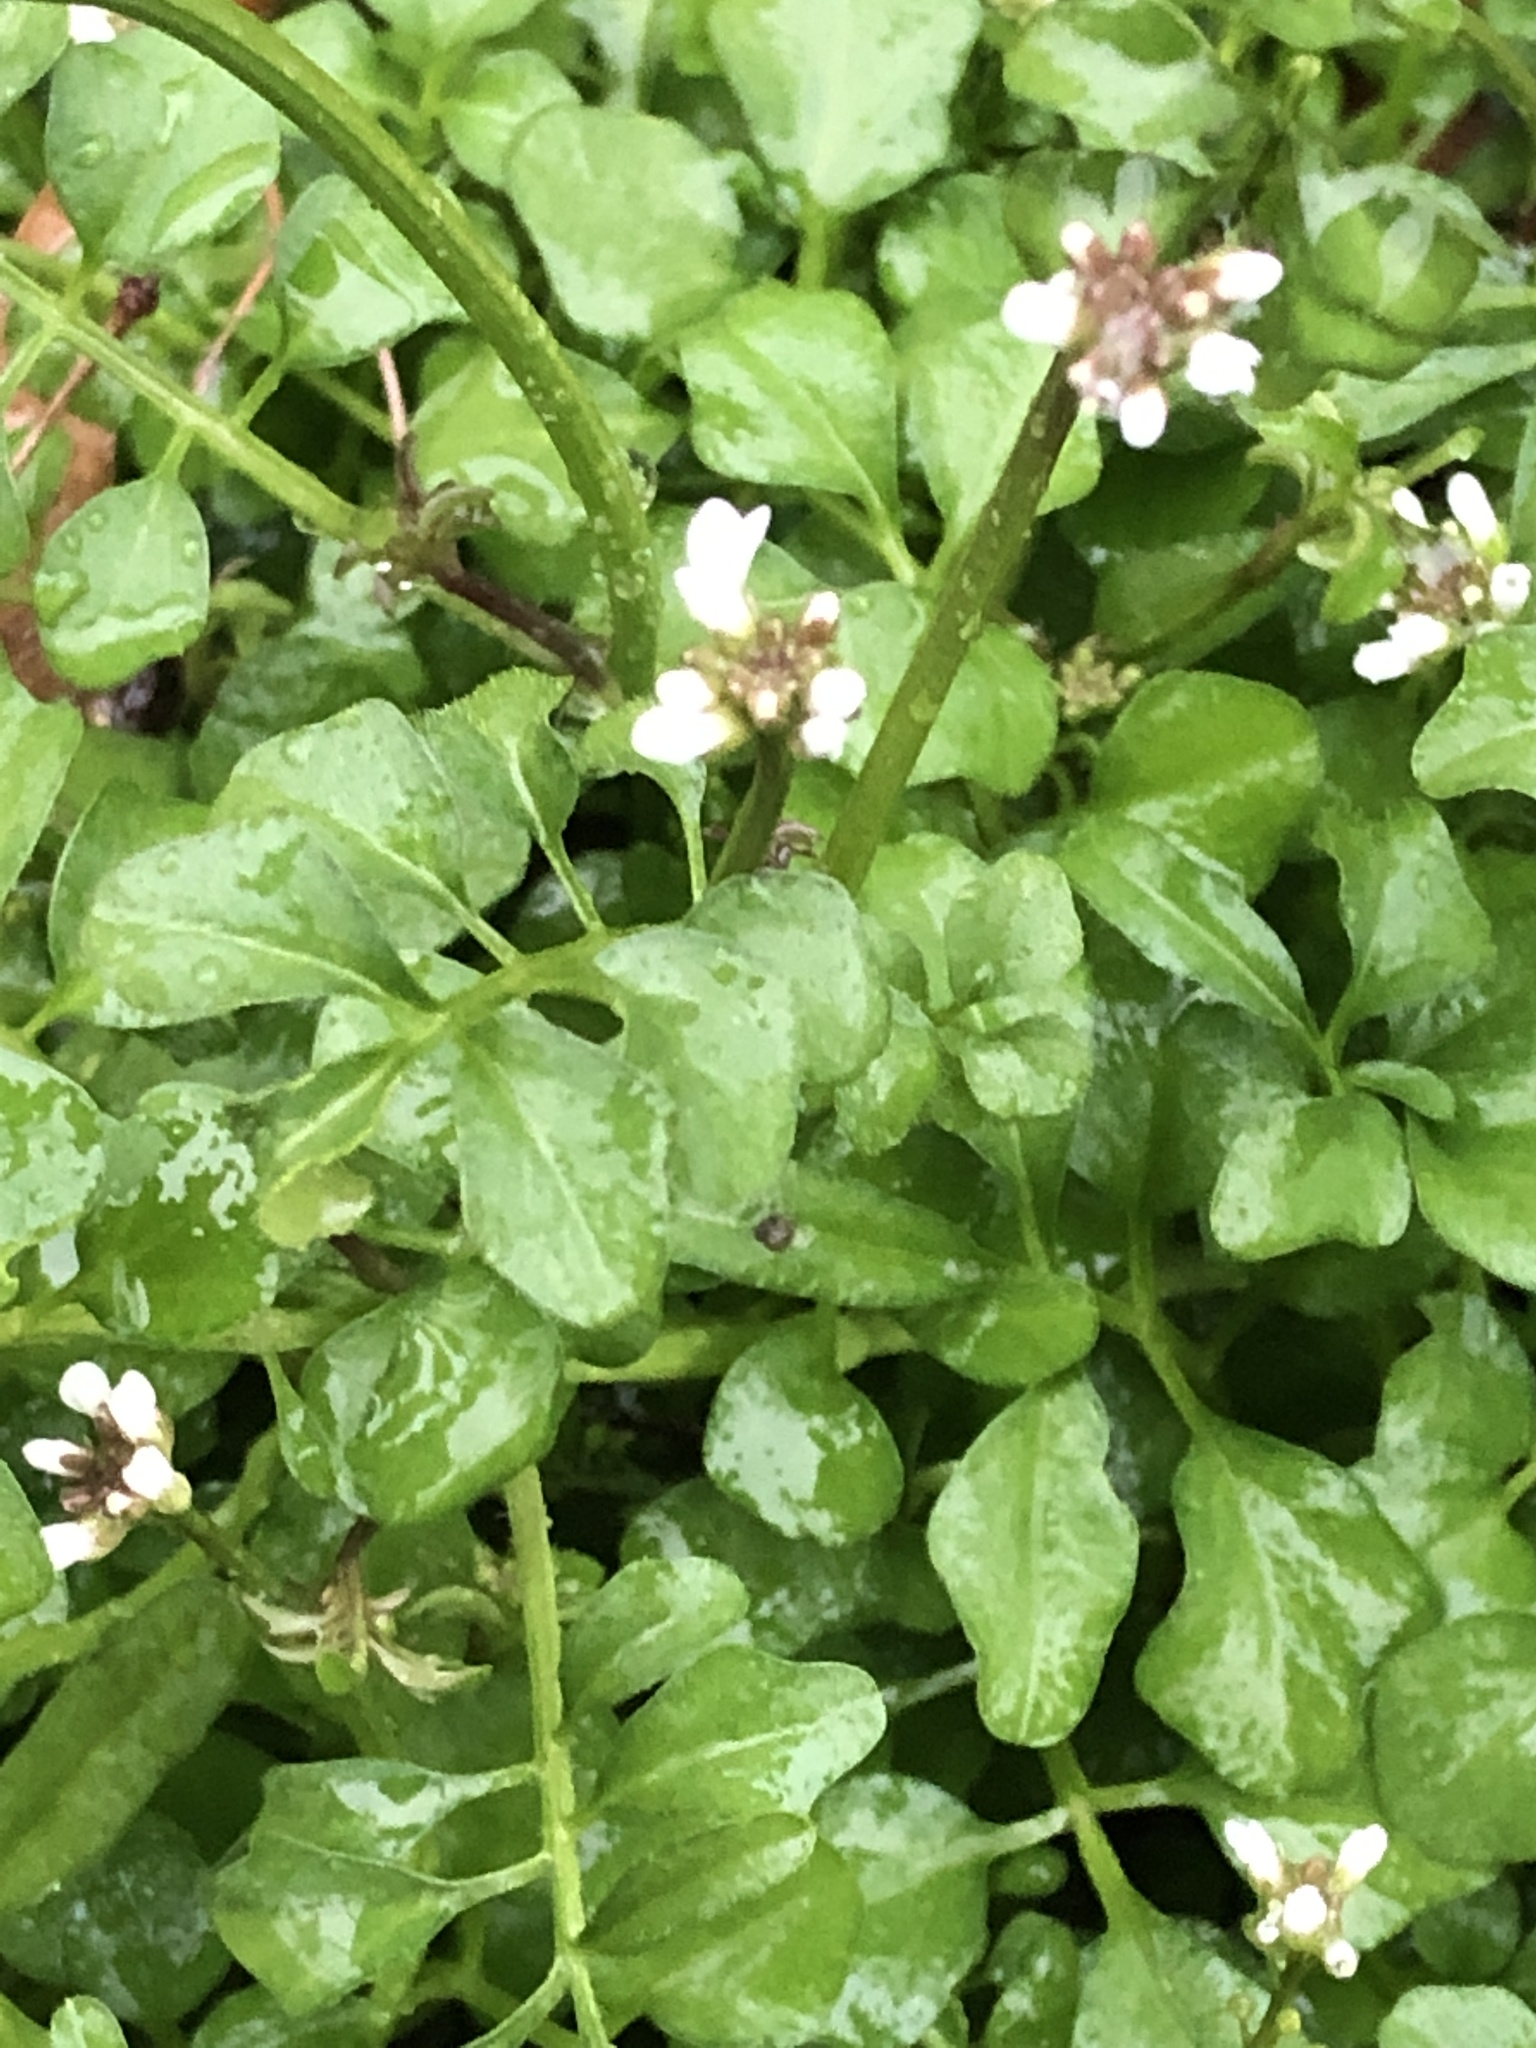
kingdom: Plantae
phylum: Tracheophyta
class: Magnoliopsida
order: Brassicales
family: Brassicaceae
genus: Cardamine
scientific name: Cardamine hirsuta
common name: Hairy bittercress
